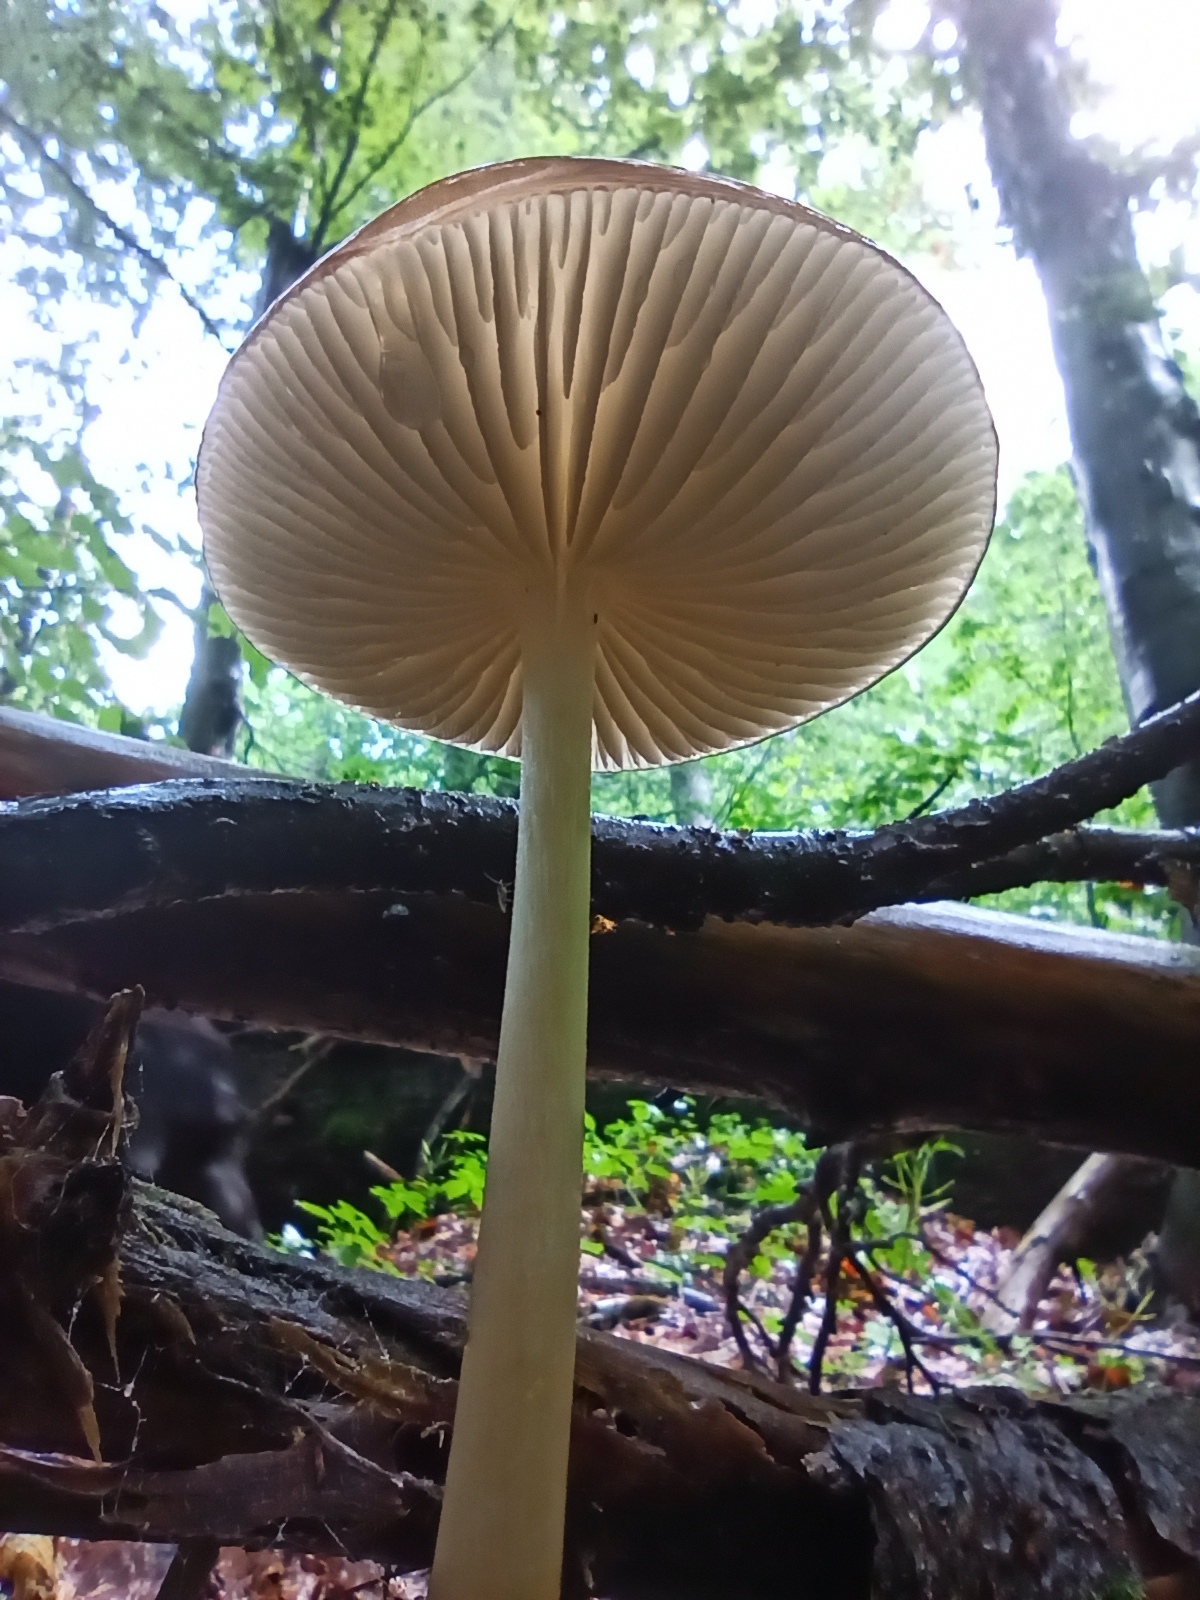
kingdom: Fungi
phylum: Basidiomycota
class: Agaricomycetes
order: Agaricales
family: Physalacriaceae
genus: Hymenopellis
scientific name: Hymenopellis radicata
